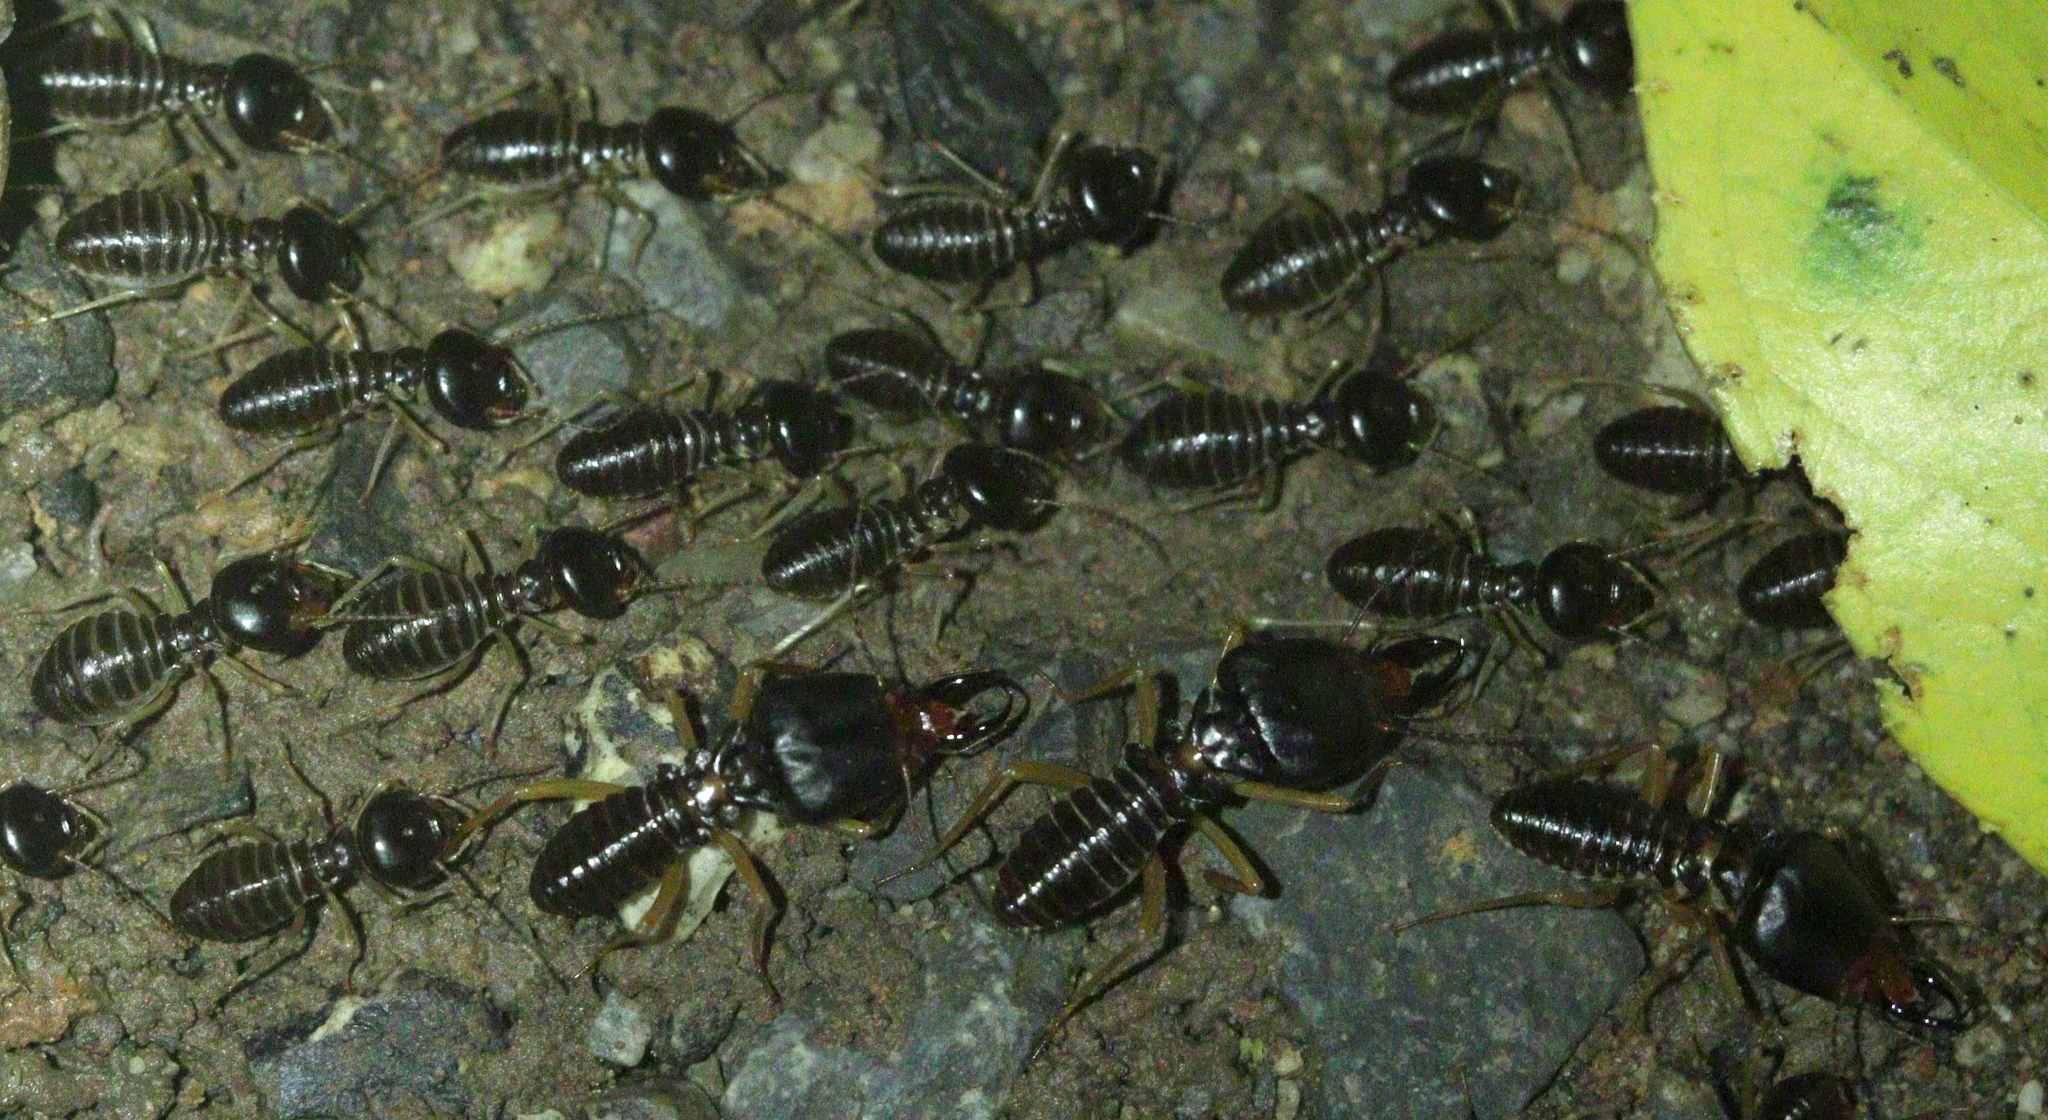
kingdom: Animalia
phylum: Arthropoda
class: Insecta
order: Blattodea
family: Termitidae
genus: Macrotermes
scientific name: Macrotermes carbonarius
